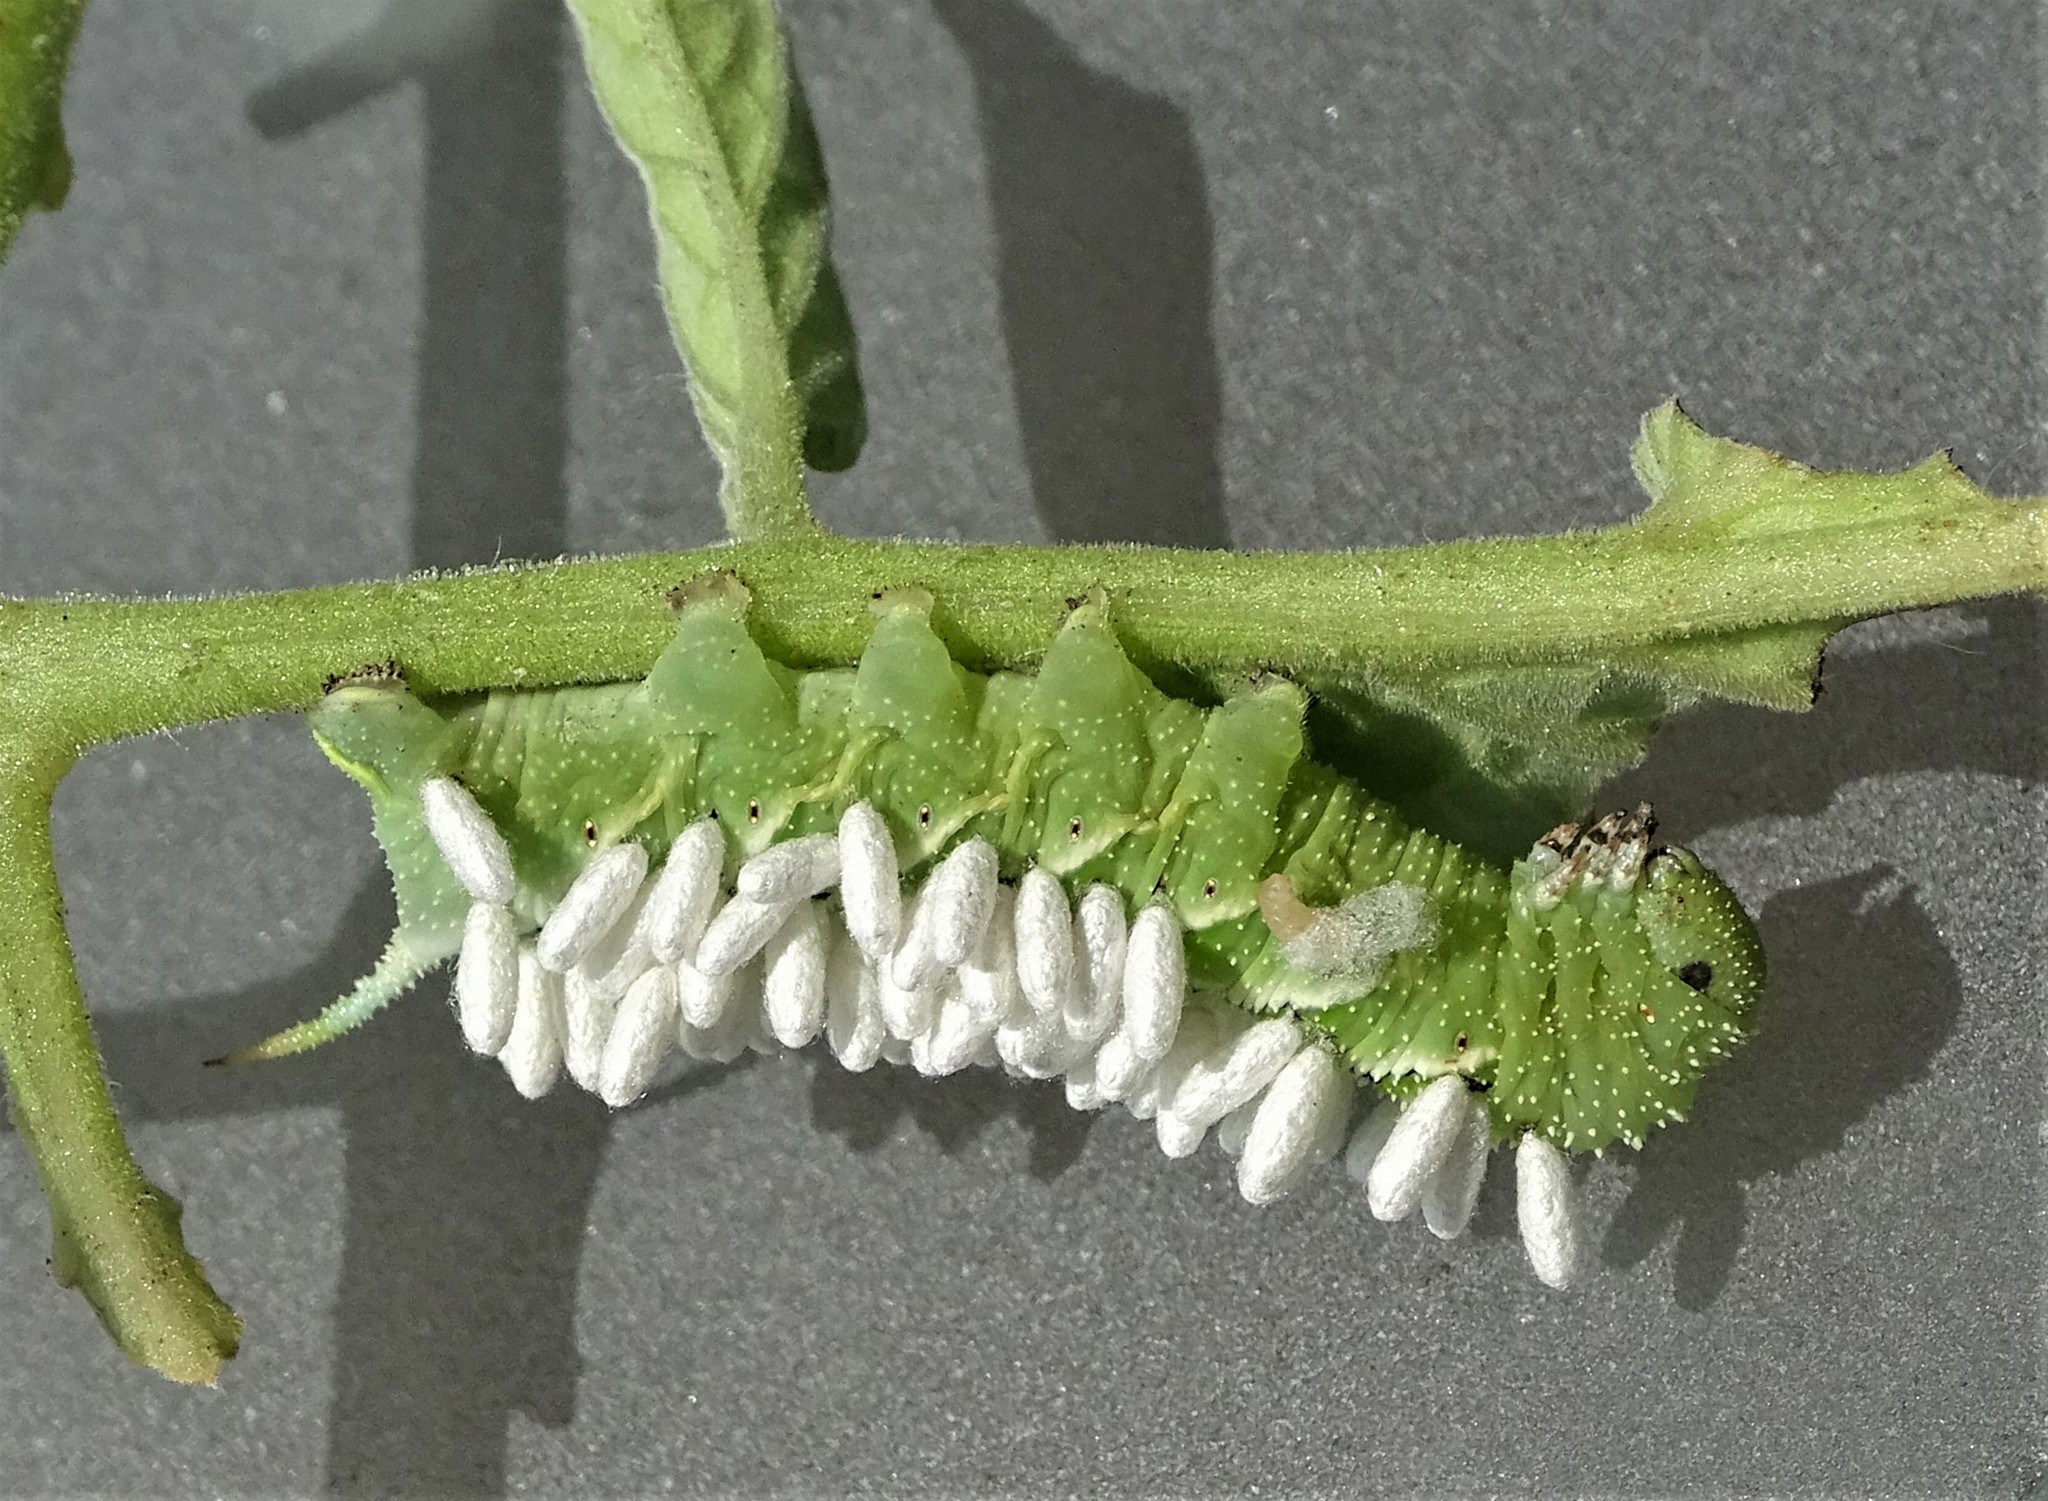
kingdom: Animalia
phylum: Arthropoda
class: Insecta
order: Lepidoptera
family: Sphingidae
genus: Manduca
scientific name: Manduca sexta
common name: Carolina sphinx
